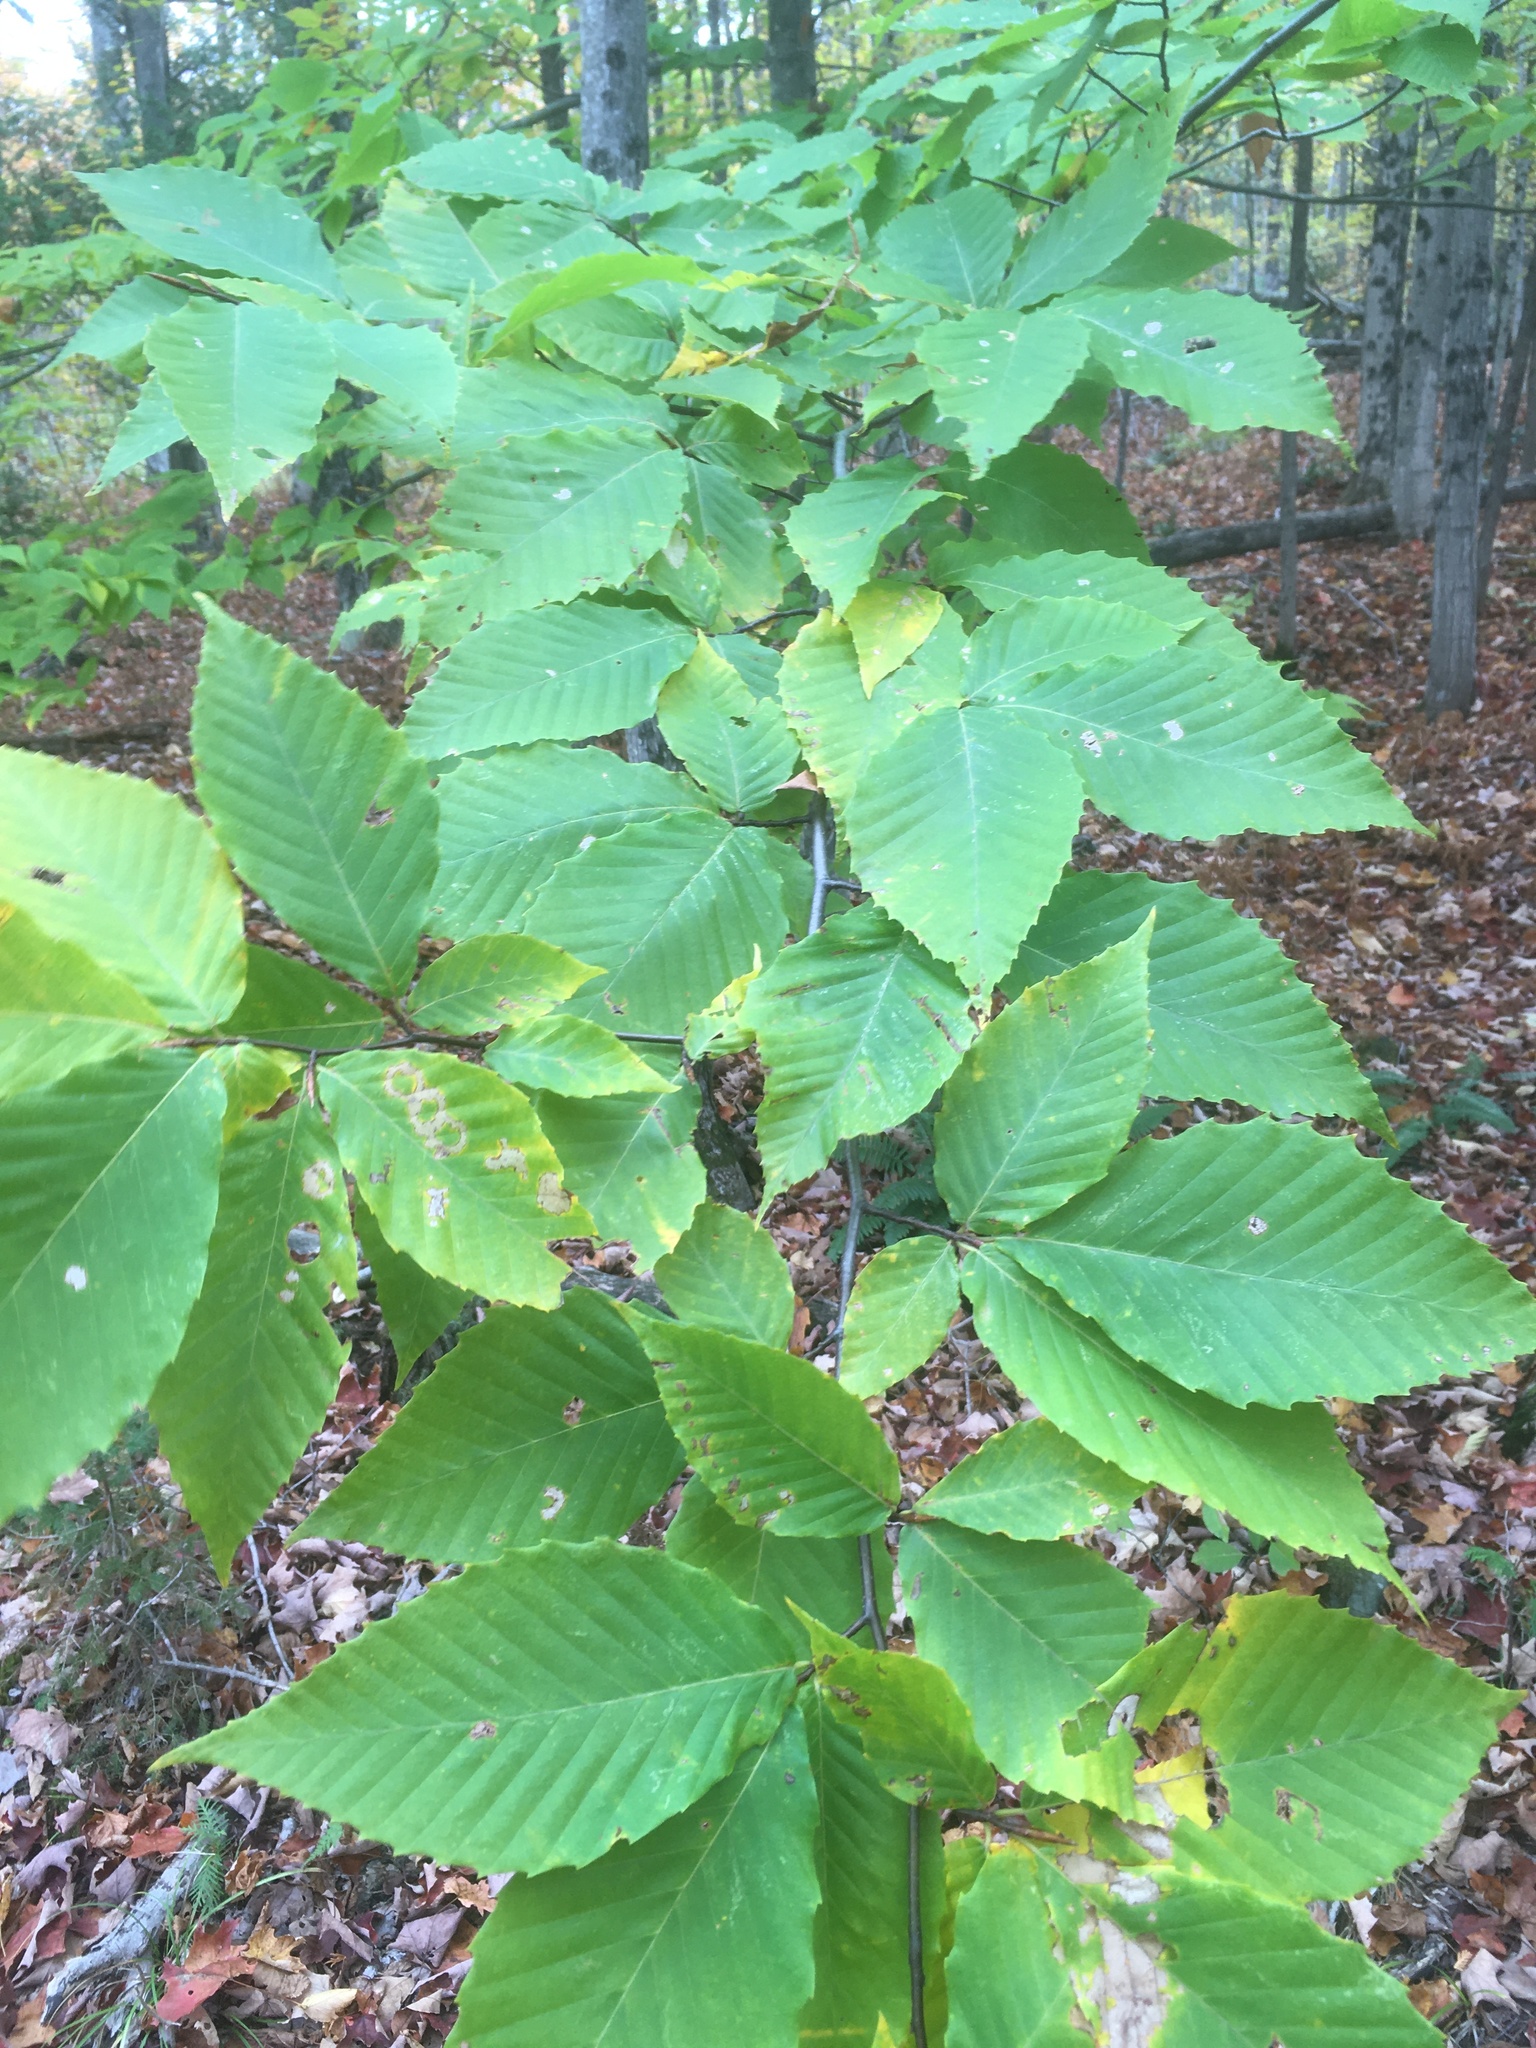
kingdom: Plantae
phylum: Tracheophyta
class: Magnoliopsida
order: Fagales
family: Fagaceae
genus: Fagus
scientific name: Fagus grandifolia
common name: American beech
